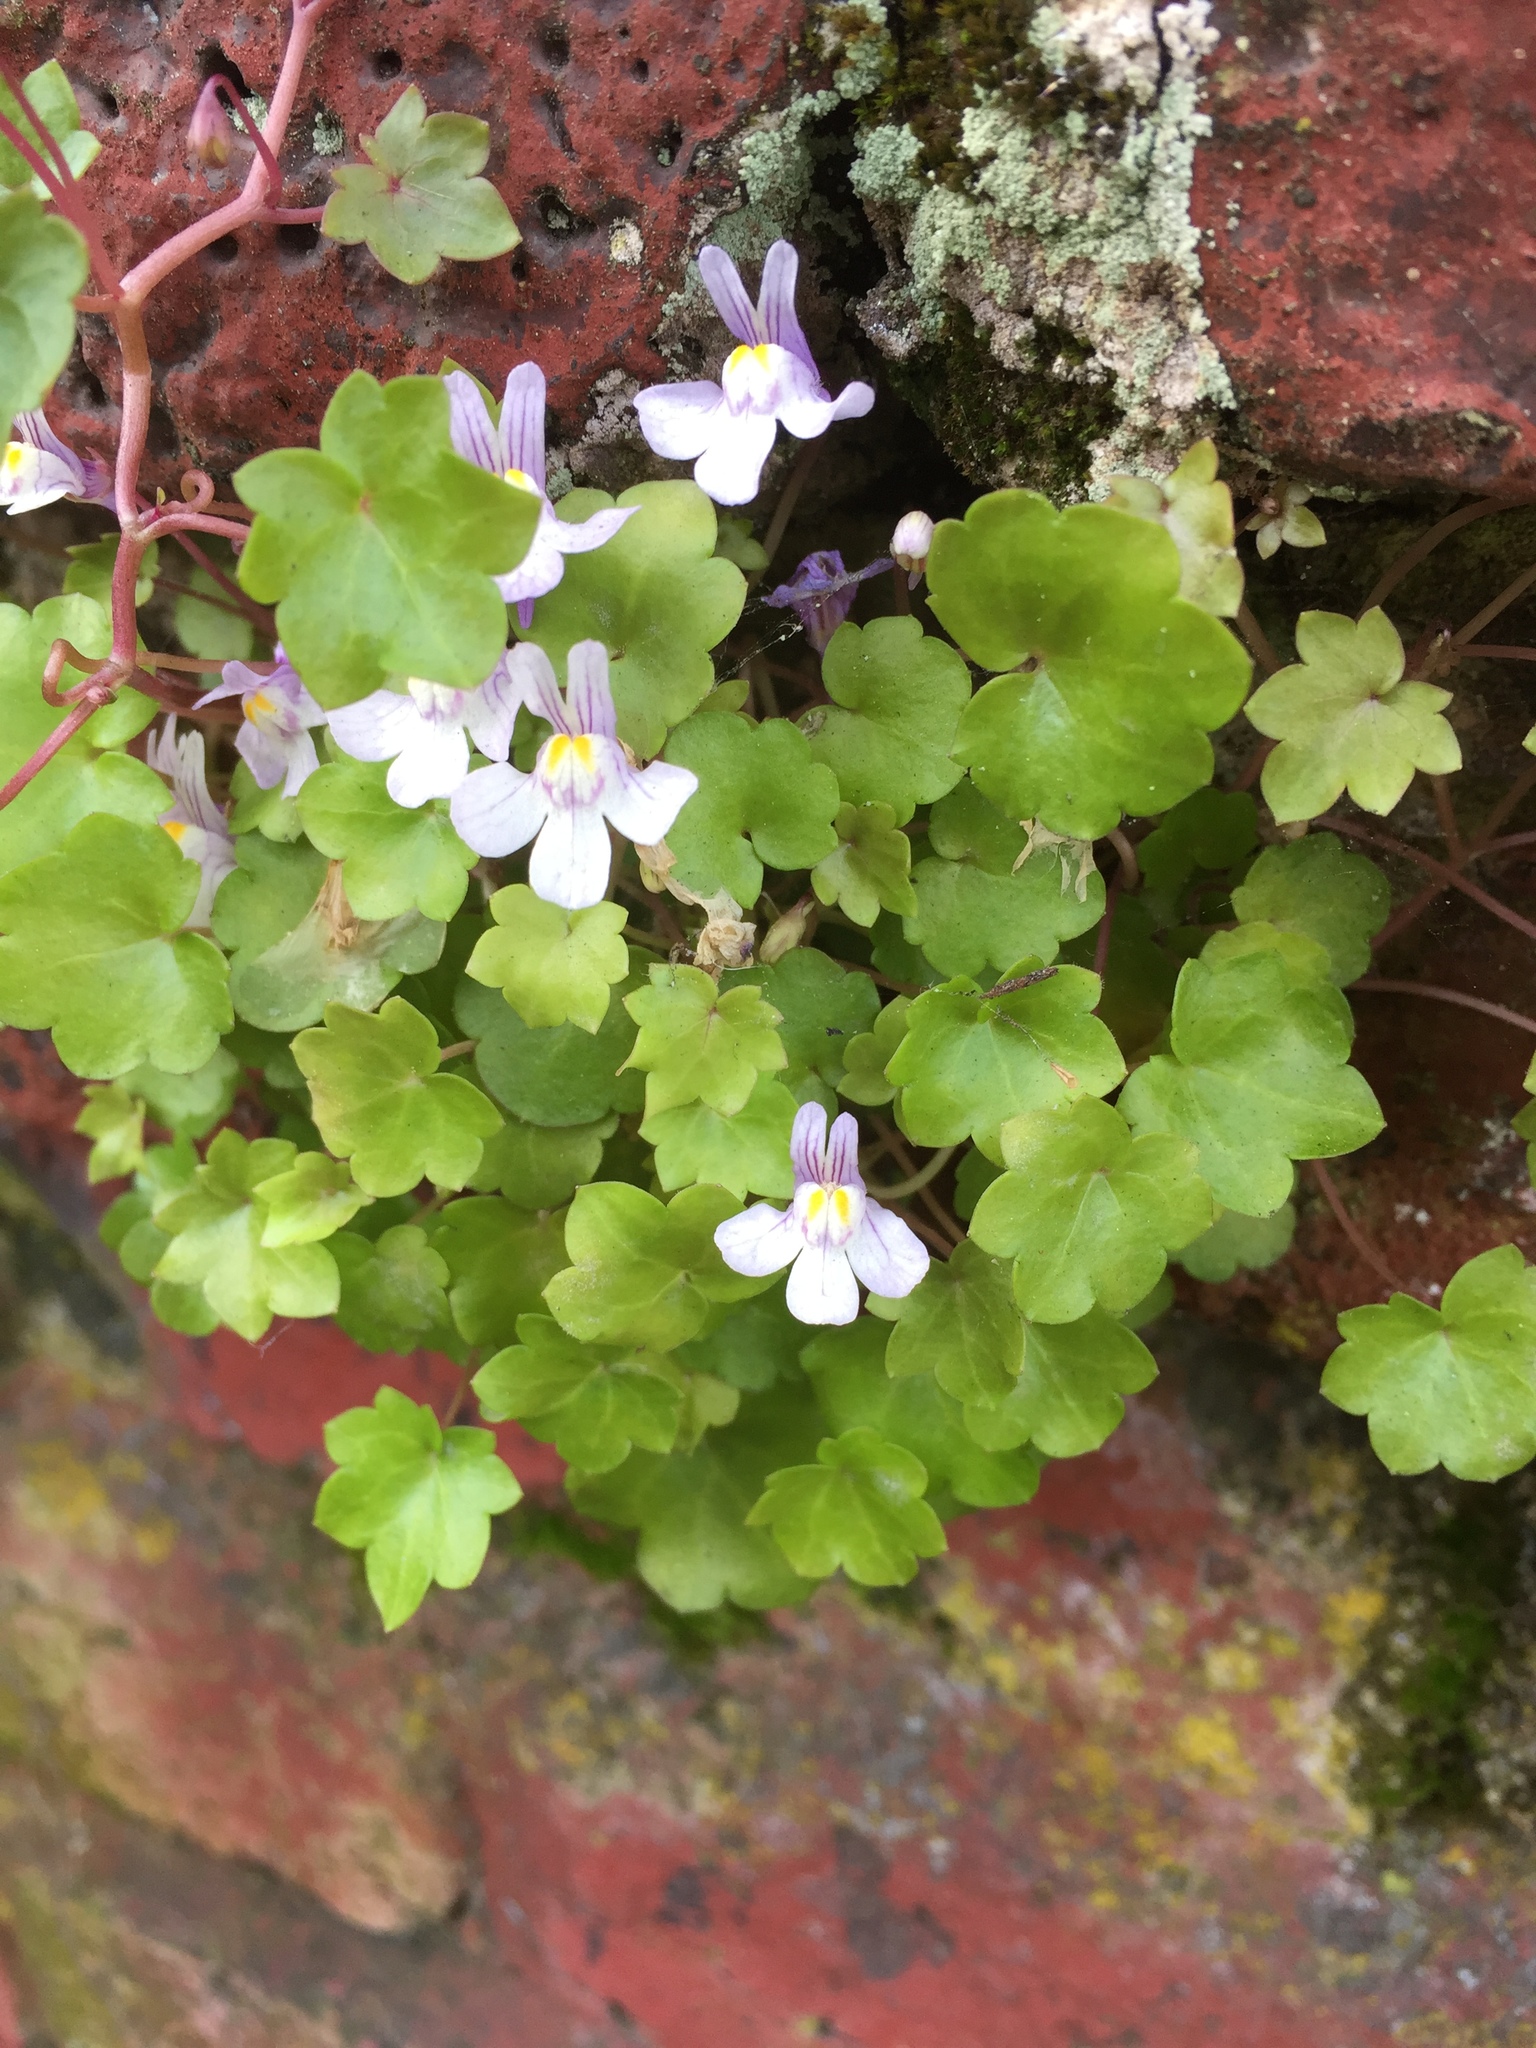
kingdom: Plantae
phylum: Tracheophyta
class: Magnoliopsida
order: Lamiales
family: Plantaginaceae
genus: Cymbalaria
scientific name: Cymbalaria muralis
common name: Ivy-leaved toadflax
